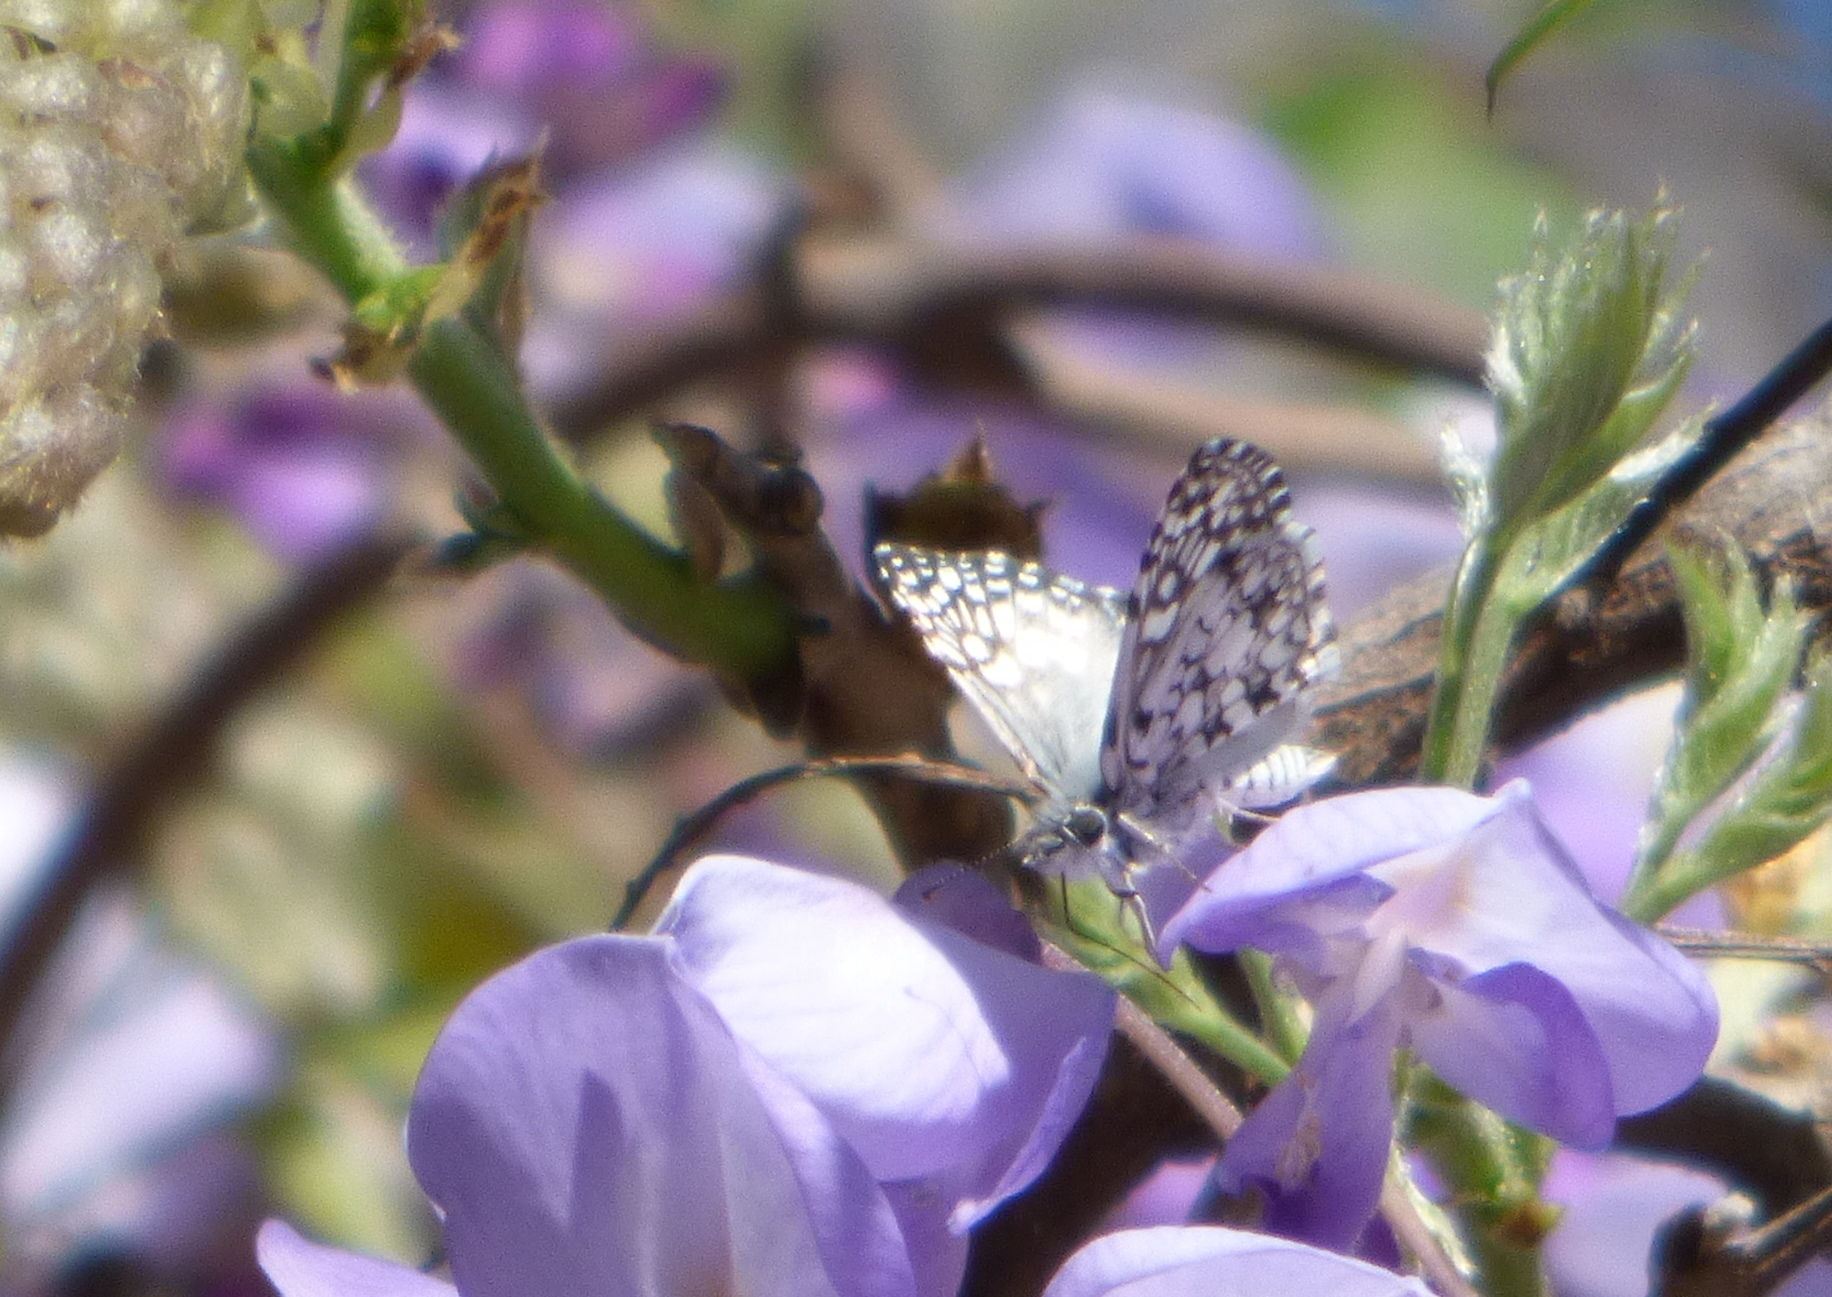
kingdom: Animalia
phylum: Arthropoda
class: Insecta
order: Lepidoptera
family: Hesperiidae
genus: Pyrgus
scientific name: Pyrgus oileus
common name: Tropical checkered-skipper
